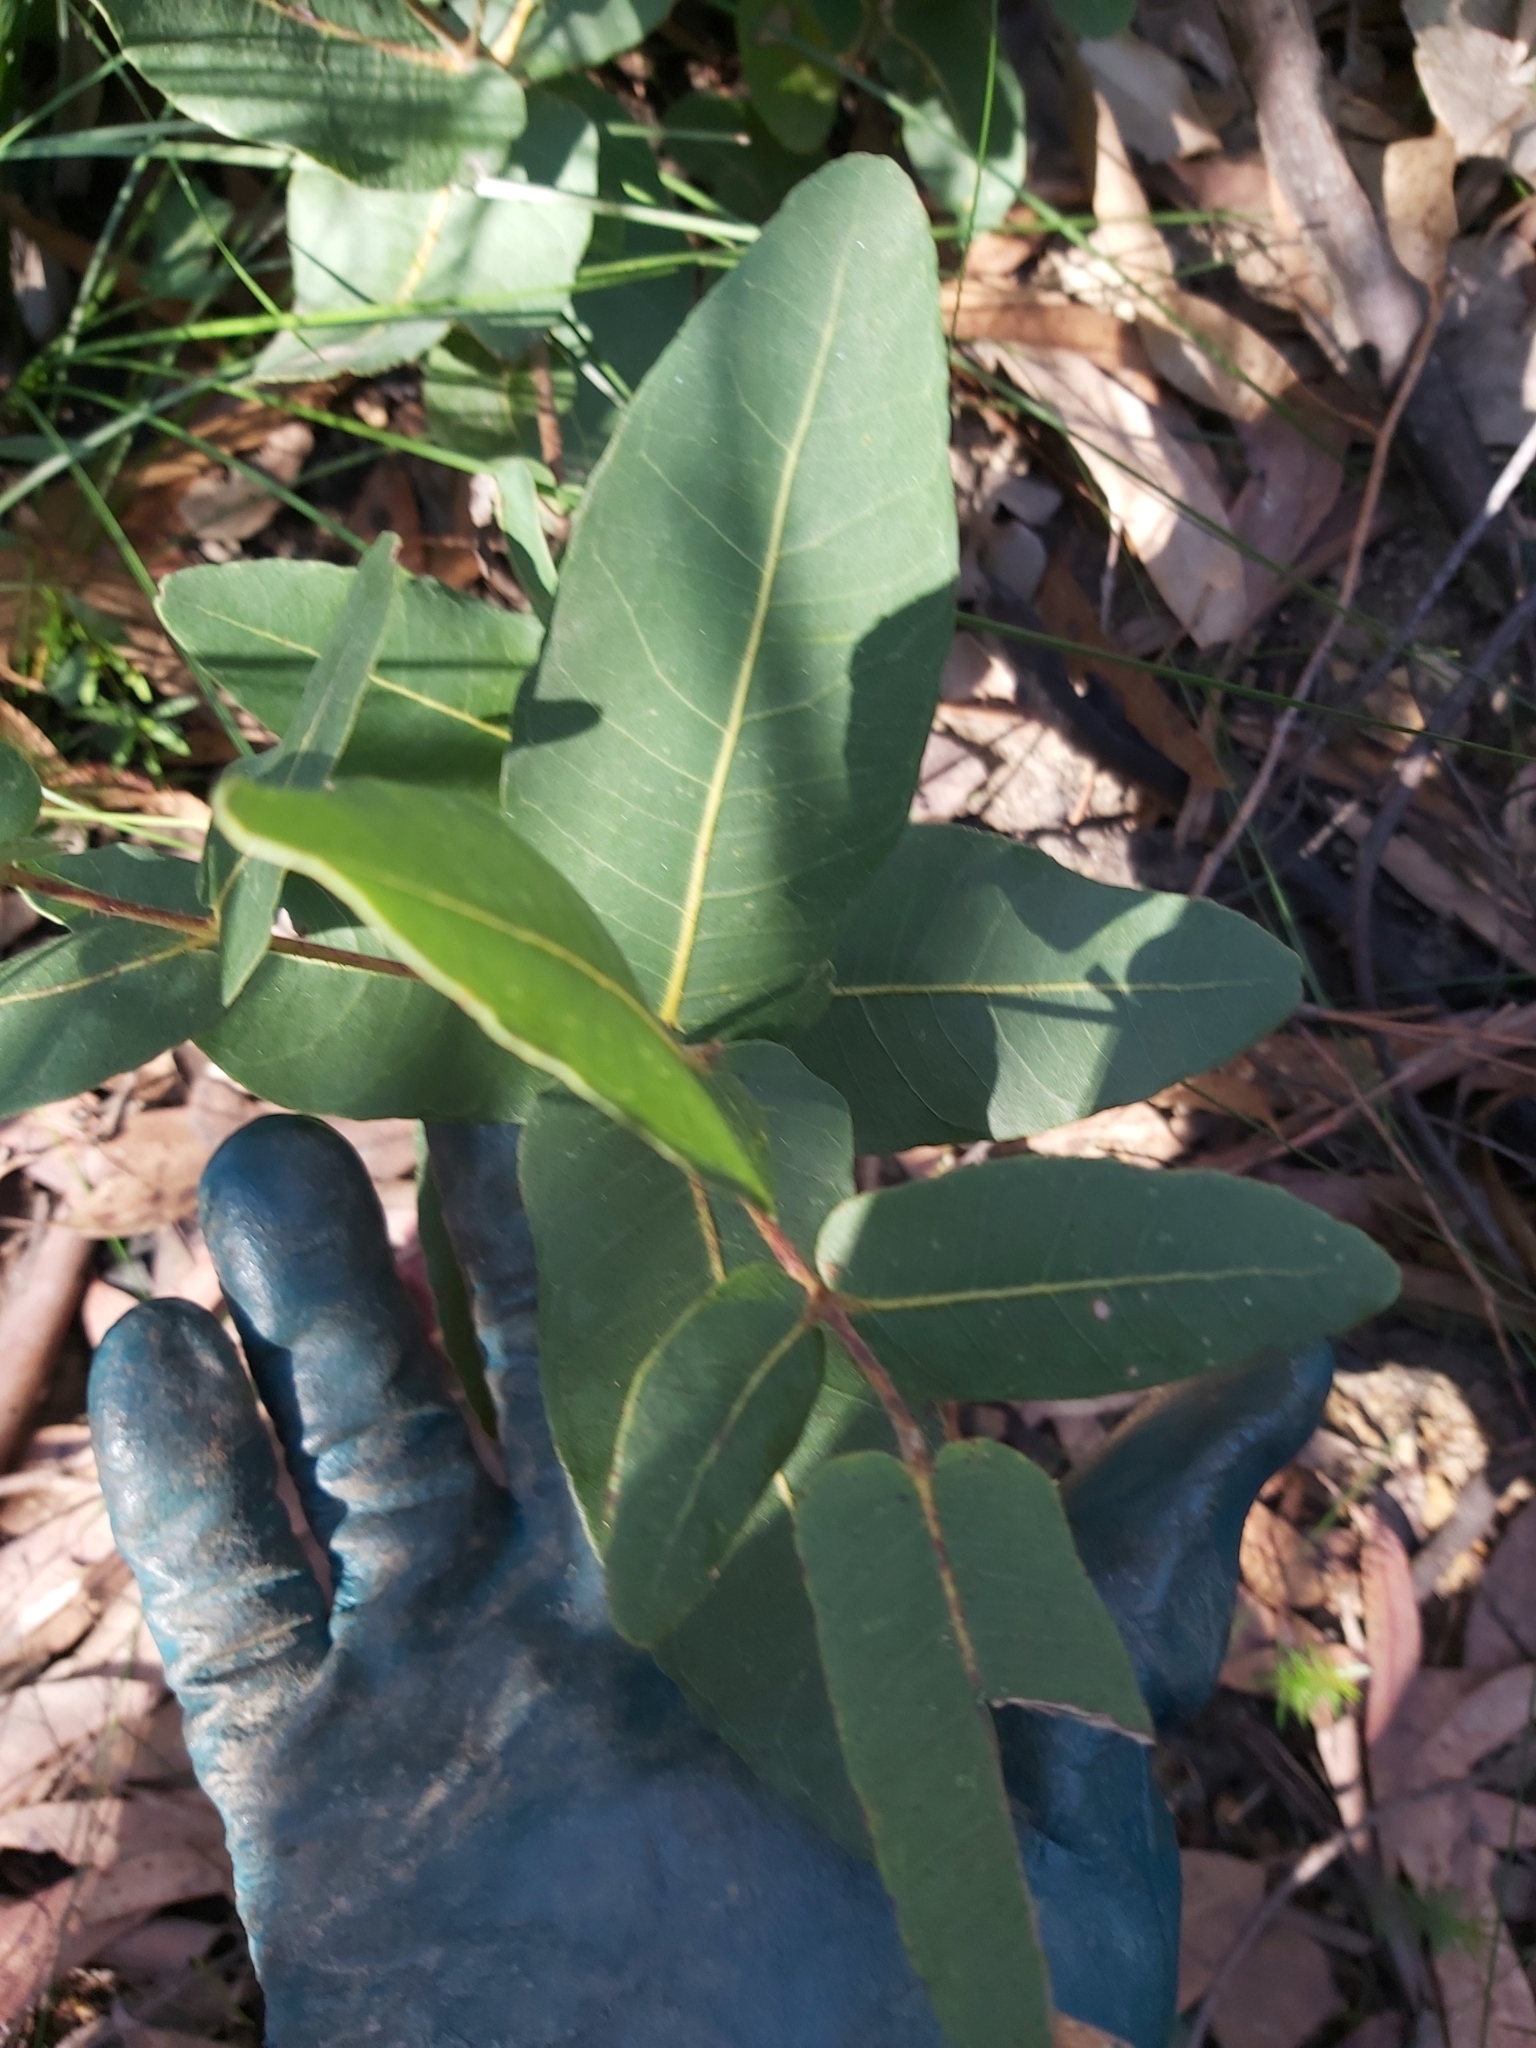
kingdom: Plantae
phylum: Tracheophyta
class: Magnoliopsida
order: Myrtales
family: Myrtaceae
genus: Angophora
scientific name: Angophora hispida
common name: Dwarf-apple
